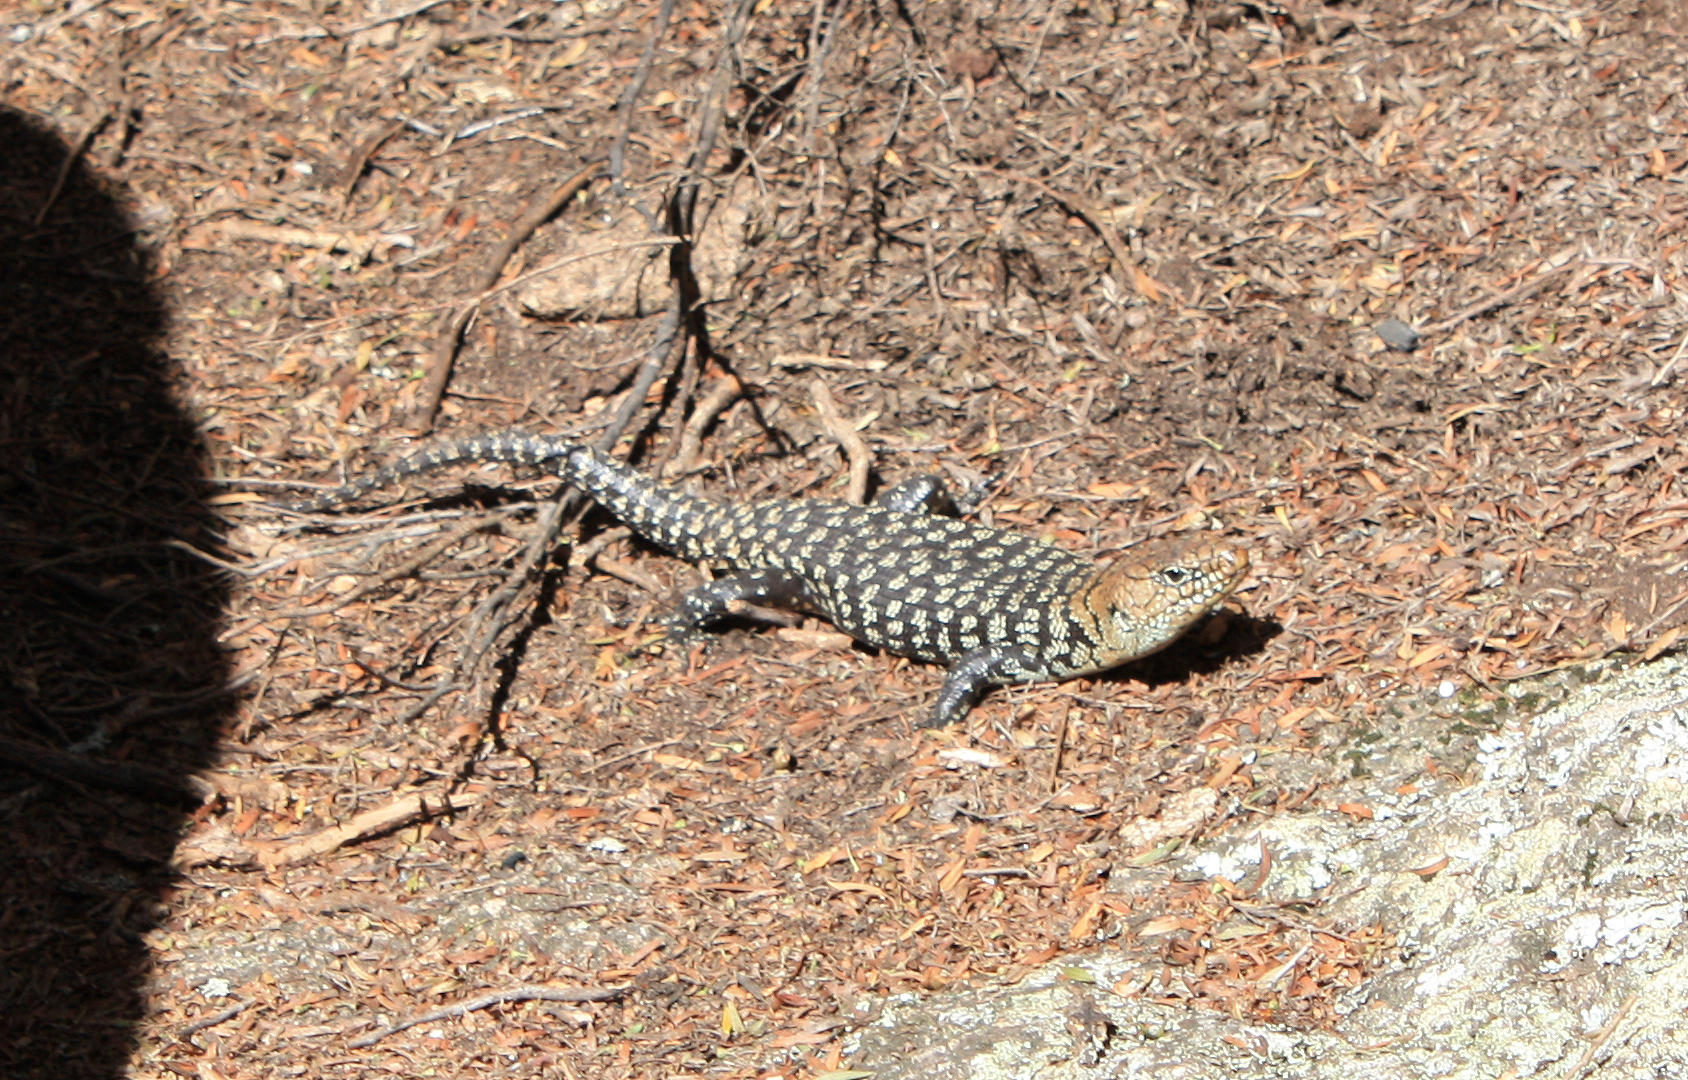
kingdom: Animalia
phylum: Chordata
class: Squamata
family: Scincidae
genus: Egernia
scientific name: Egernia cunninghami
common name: Cunningham's skink
